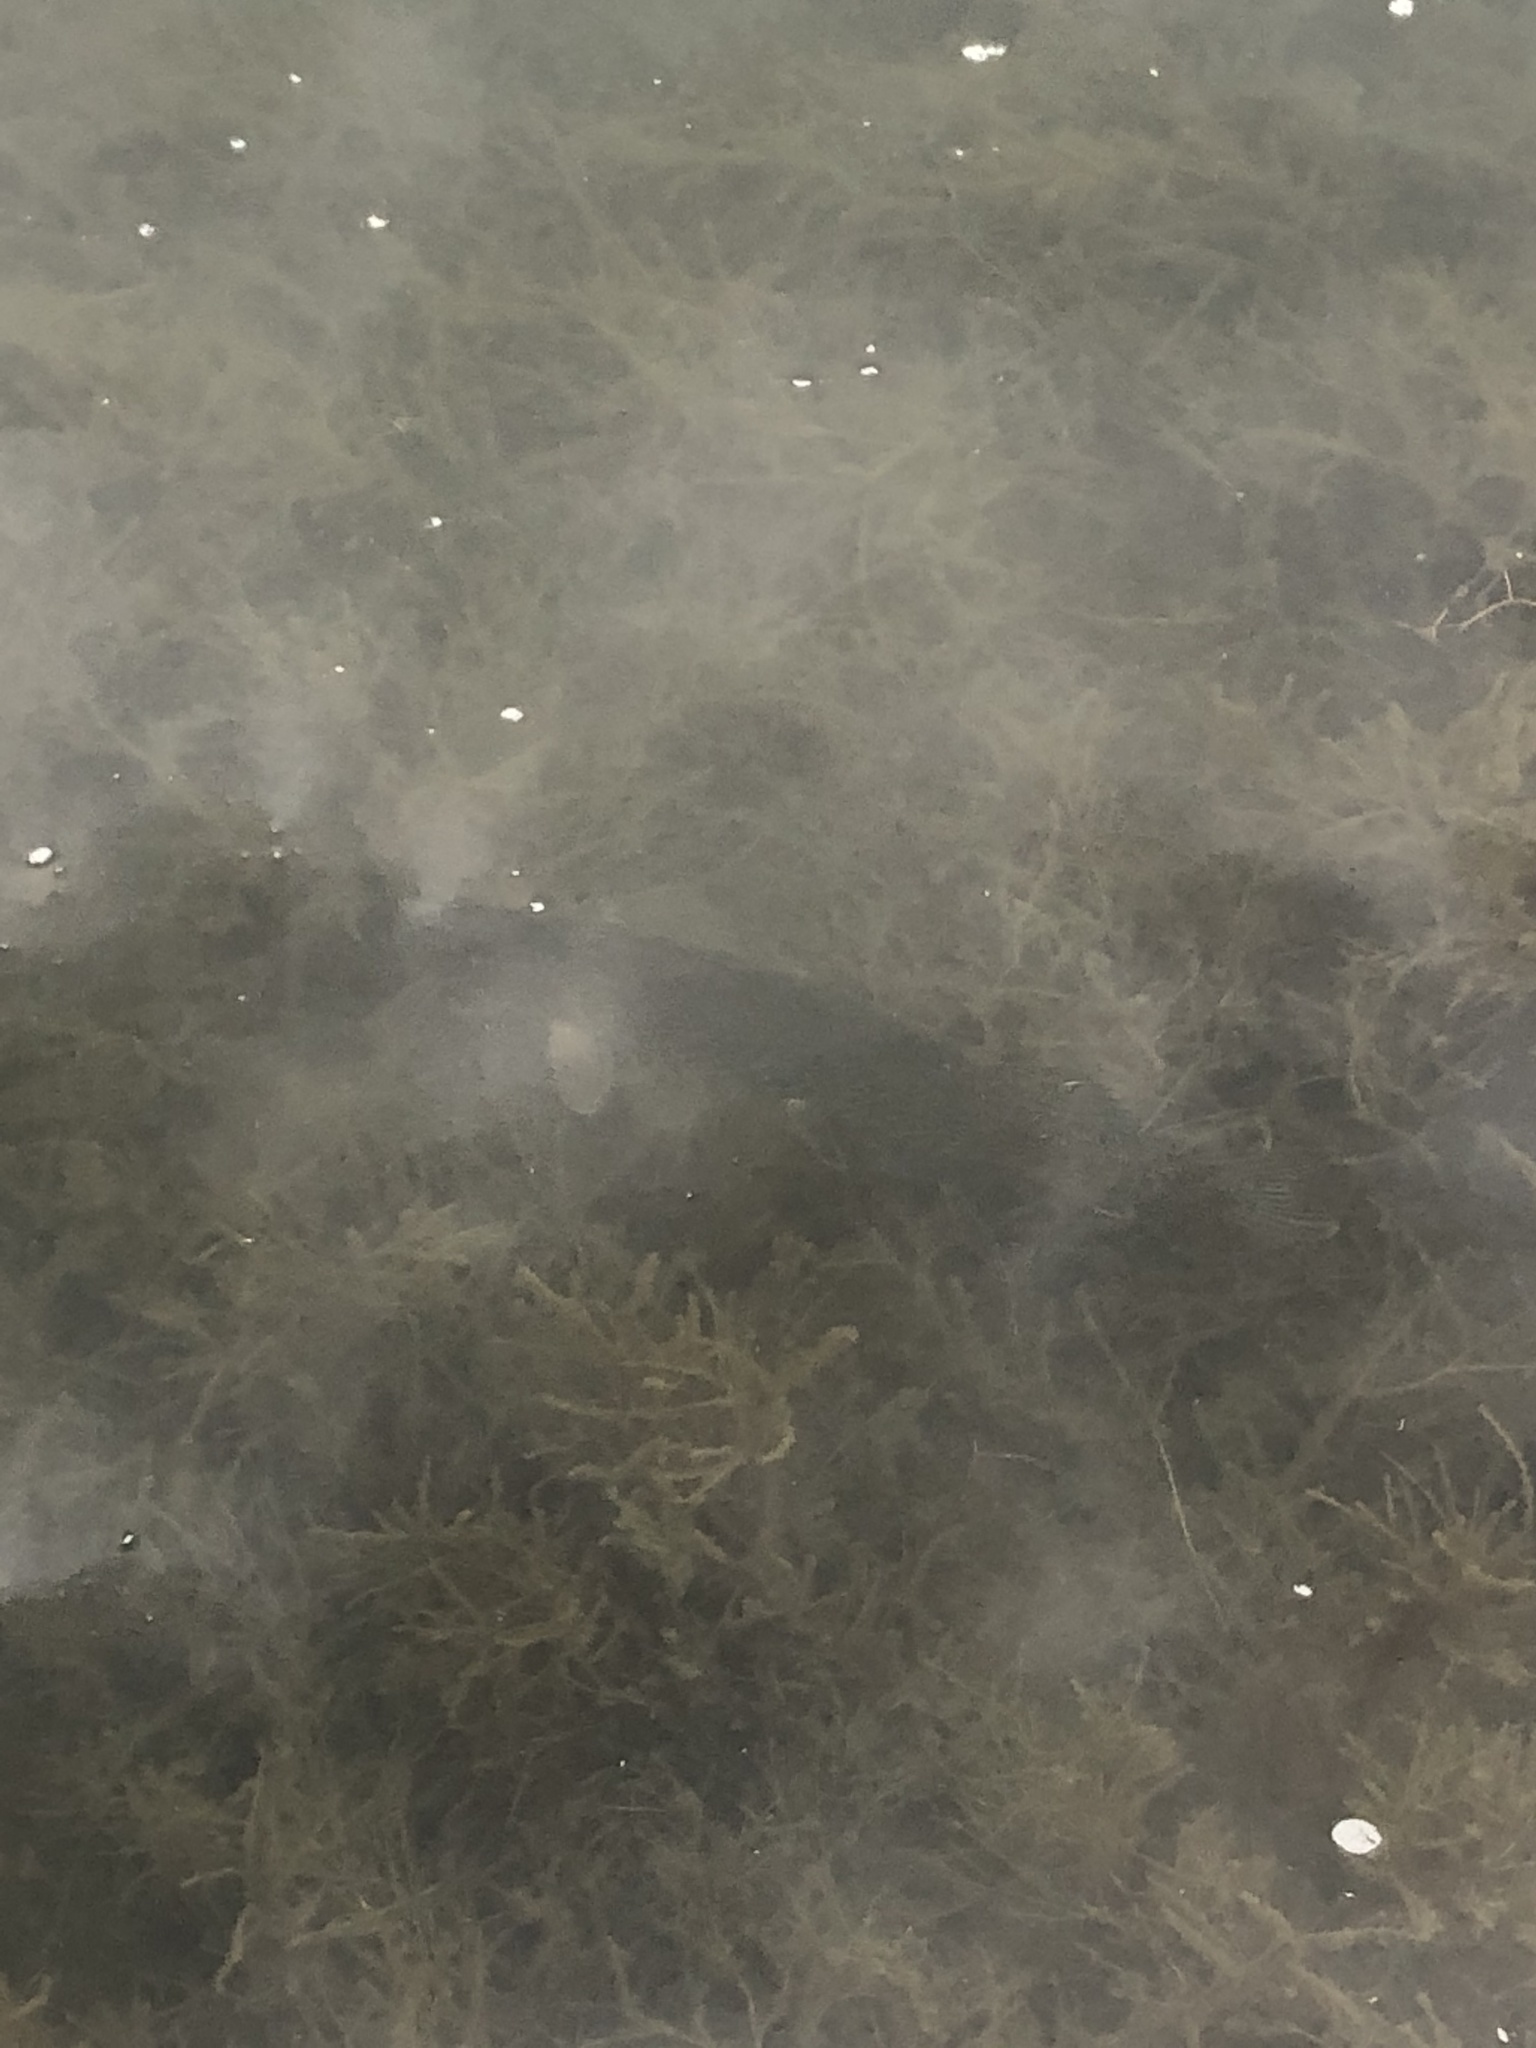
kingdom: Animalia
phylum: Chordata
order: Esociformes
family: Esocidae
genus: Esox
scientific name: Esox lucius
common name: Northern pike
